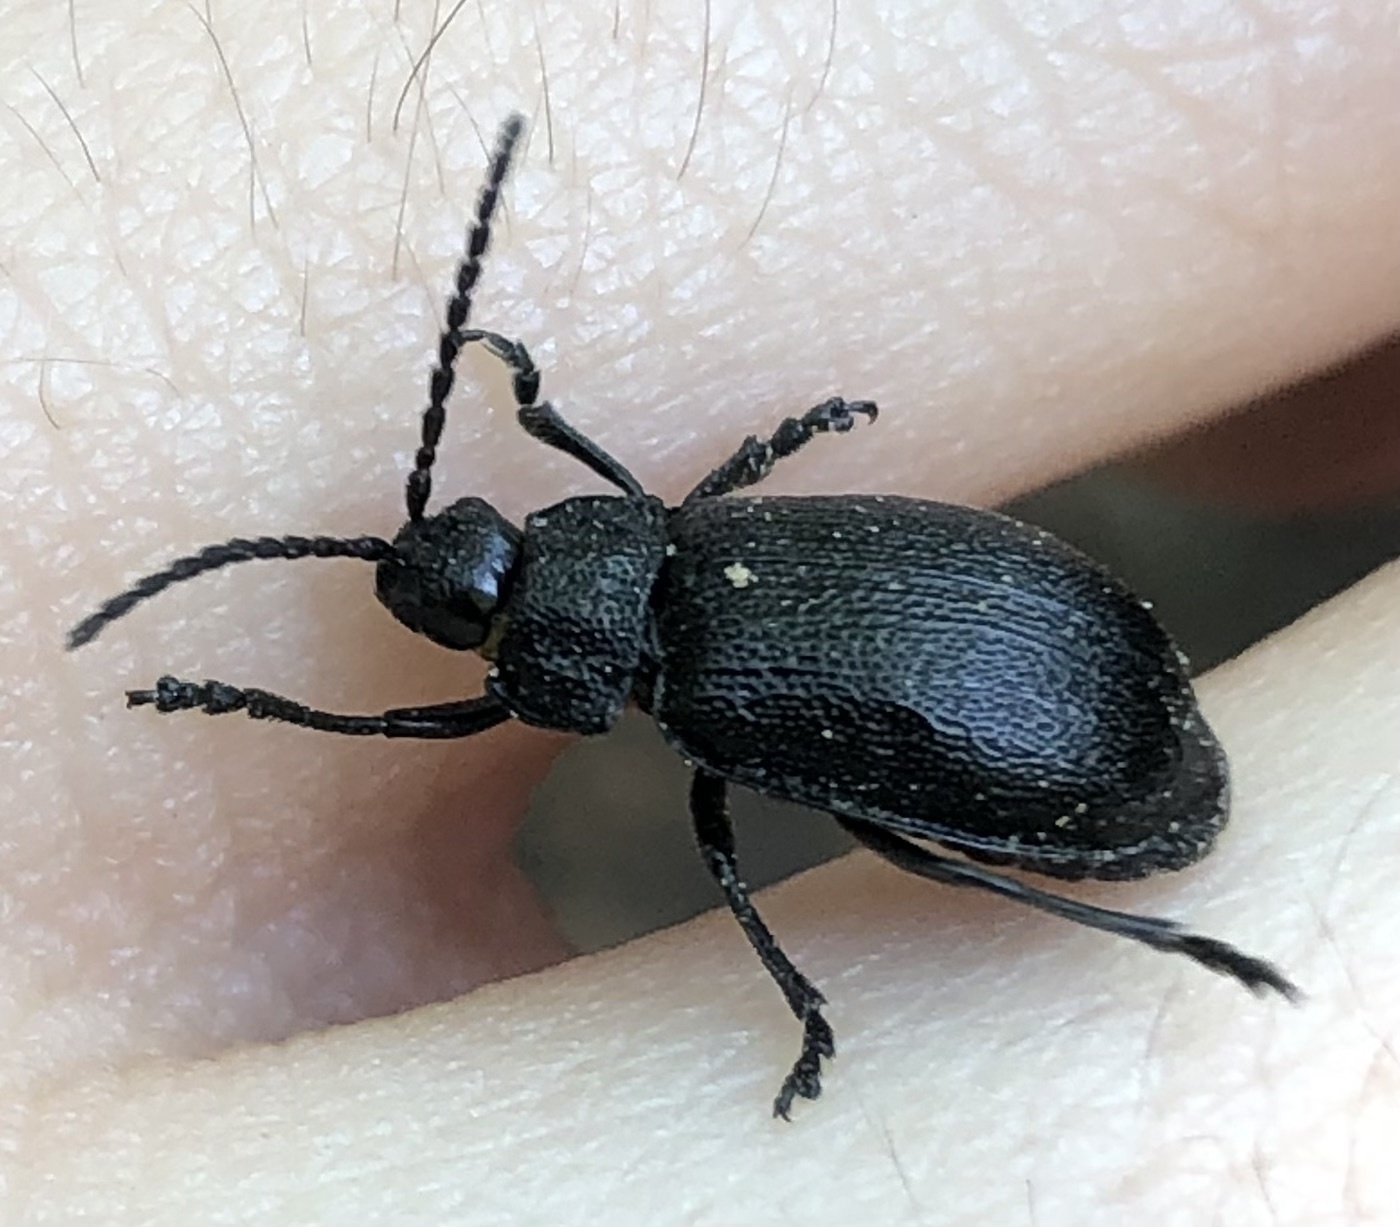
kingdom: Animalia
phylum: Arthropoda
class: Insecta
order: Coleoptera
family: Chrysomelidae
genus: Galeruca
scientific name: Galeruca tanaceti
